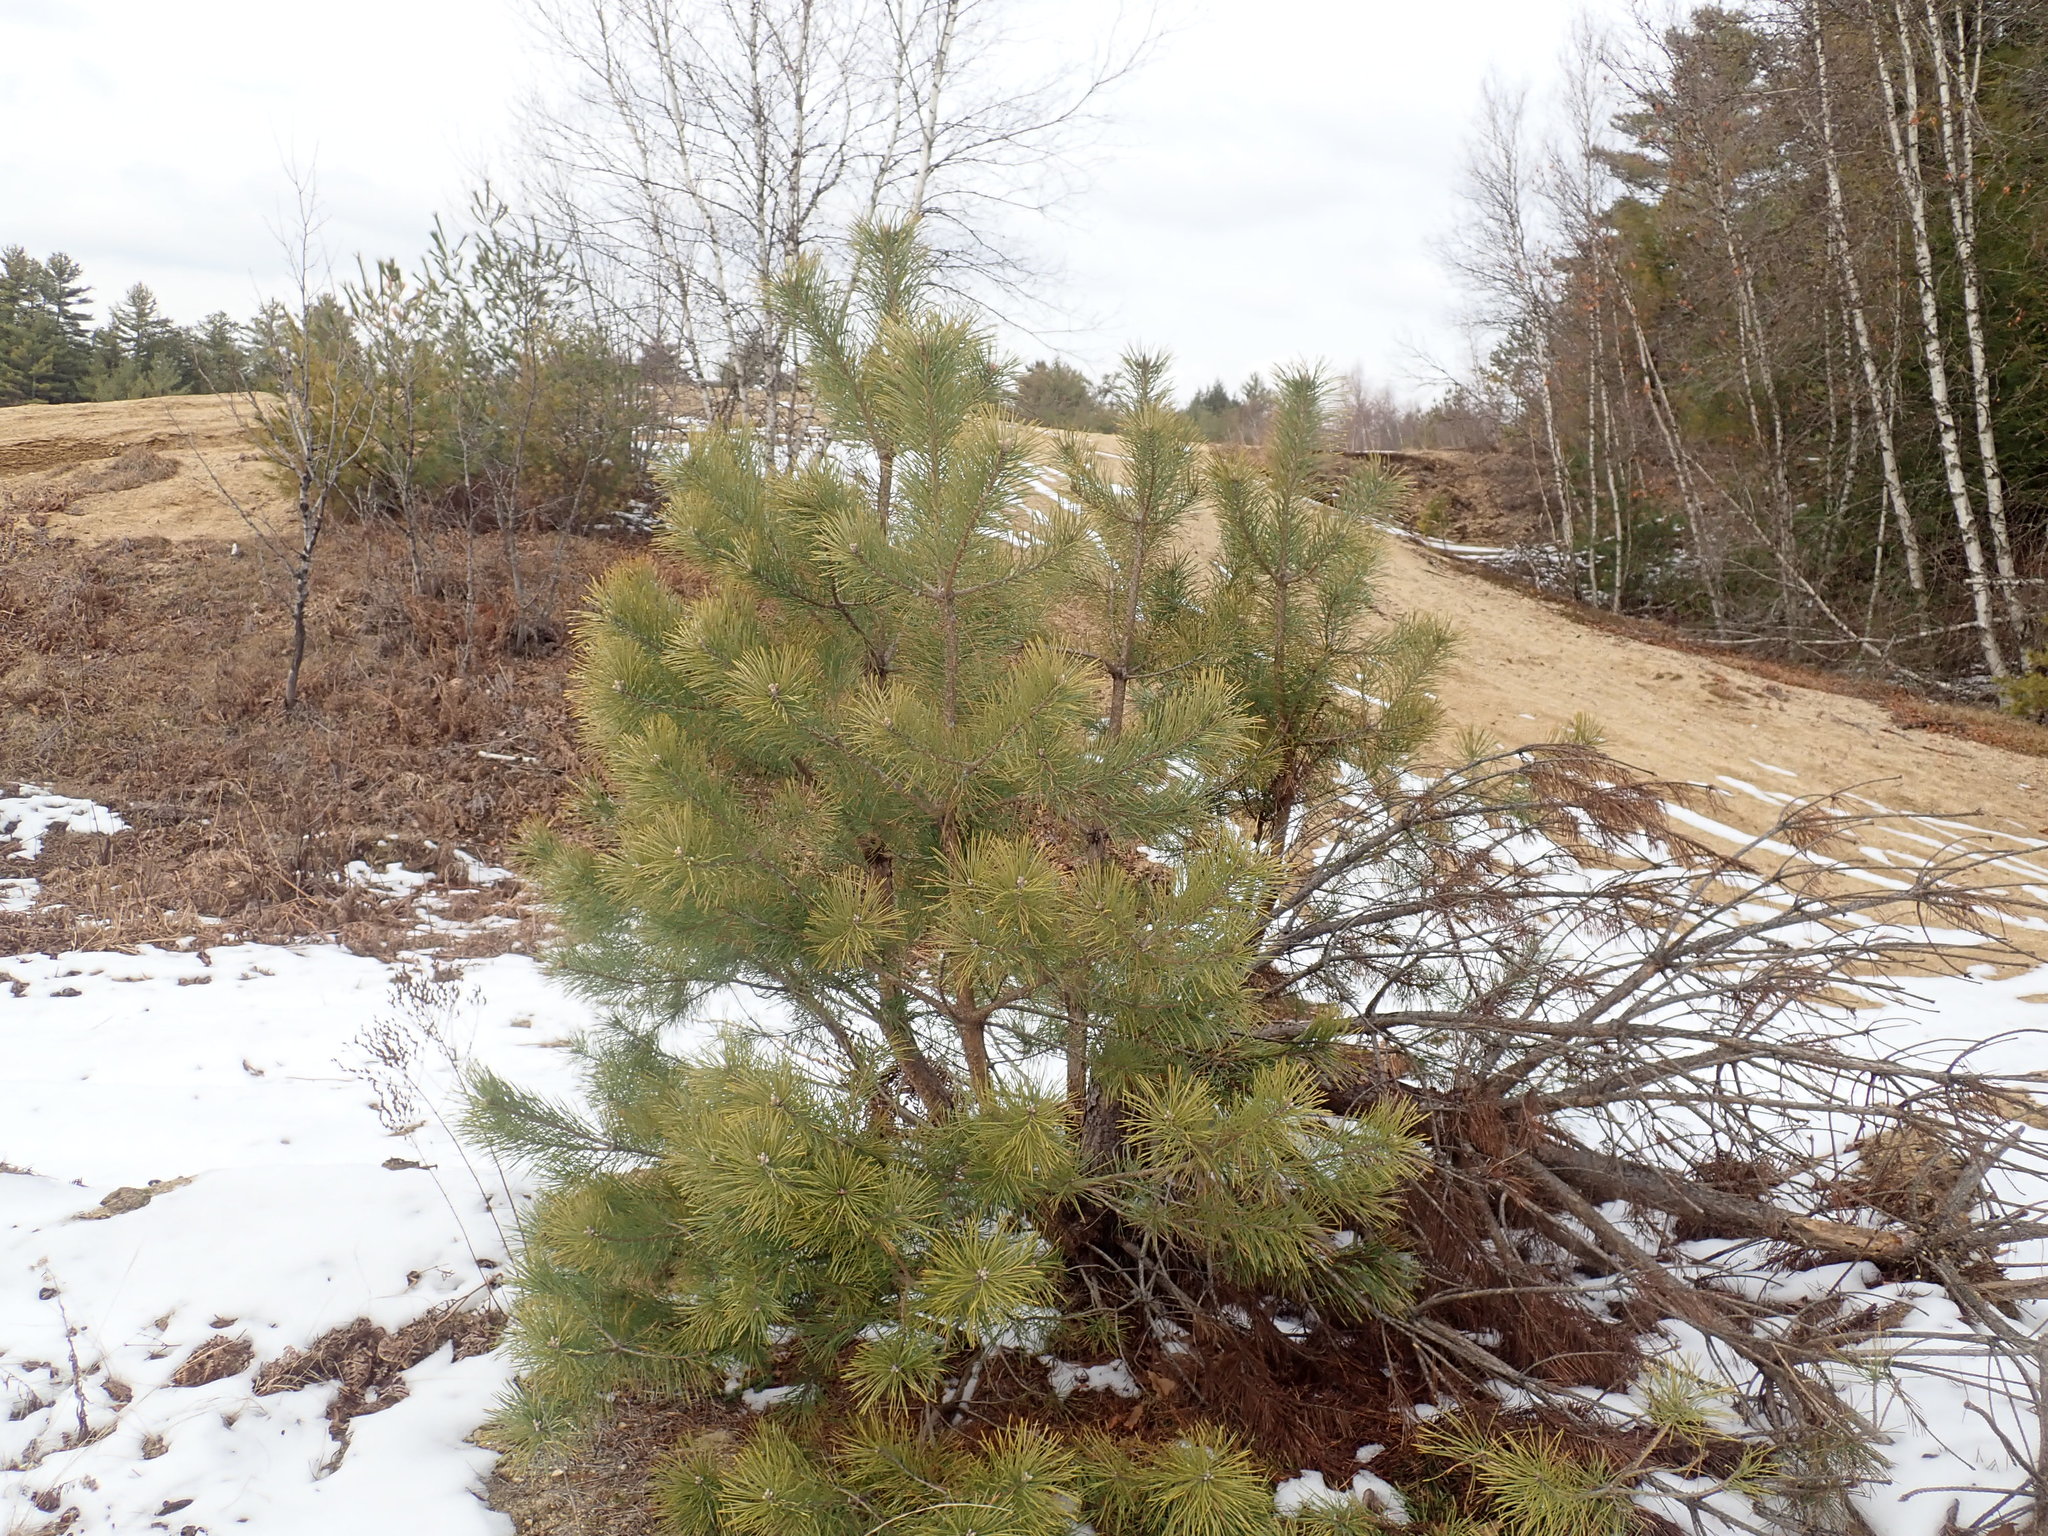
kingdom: Plantae
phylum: Tracheophyta
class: Pinopsida
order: Pinales
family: Pinaceae
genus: Pinus
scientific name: Pinus sylvestris
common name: Scots pine
